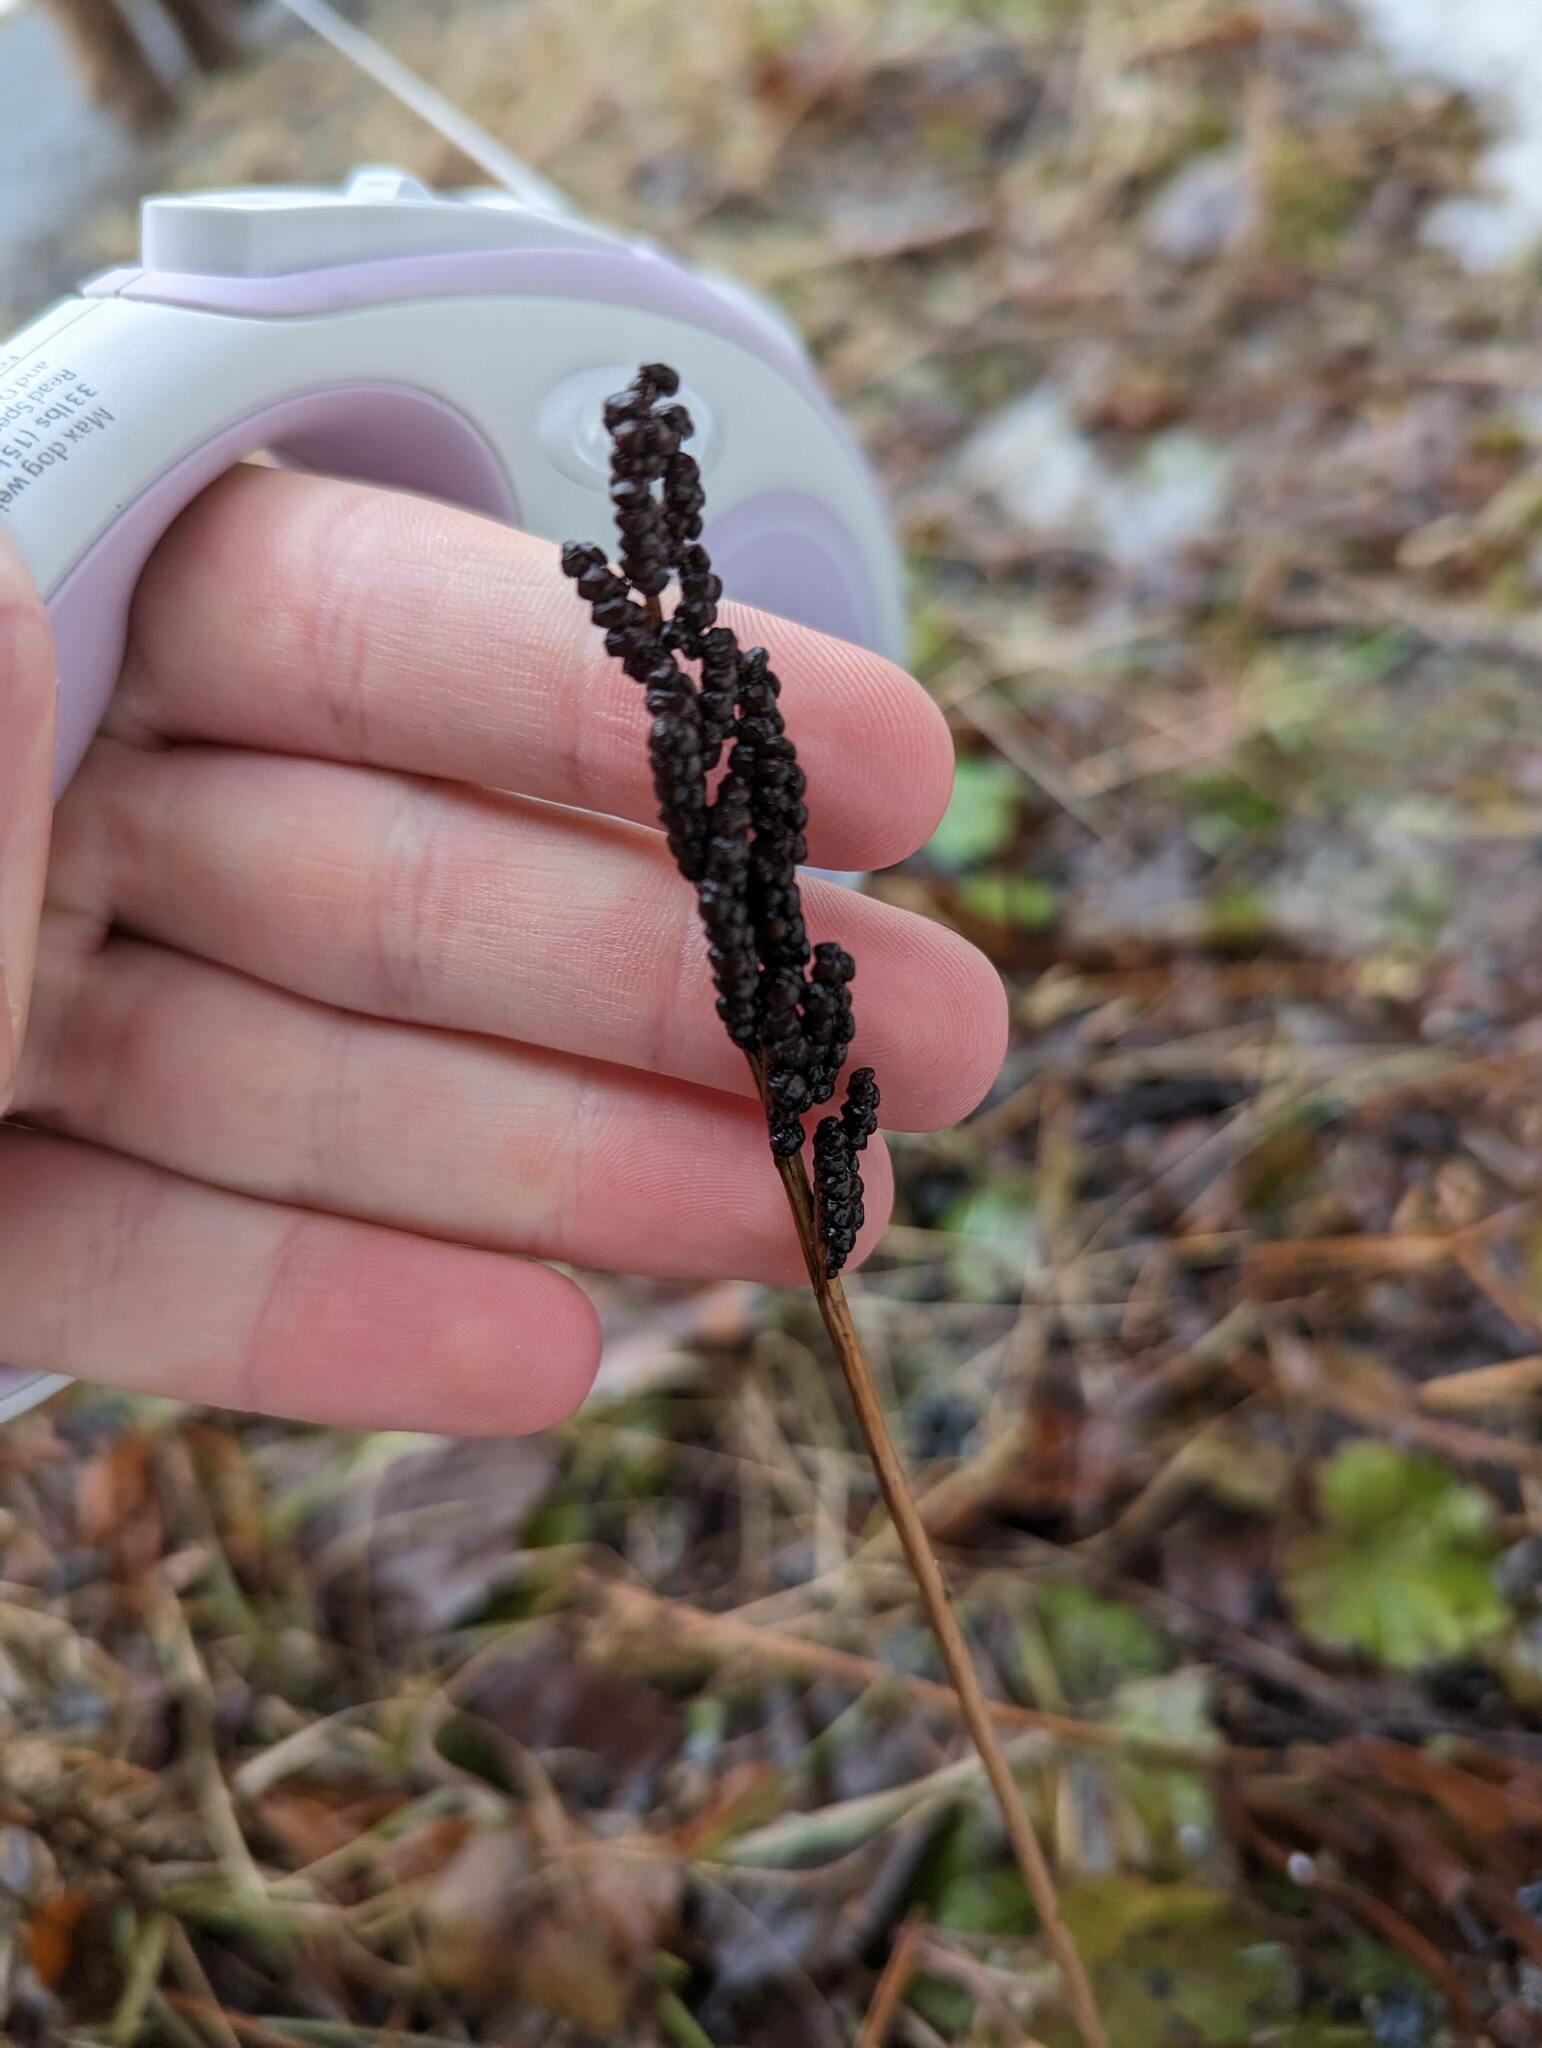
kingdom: Plantae
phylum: Tracheophyta
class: Polypodiopsida
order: Polypodiales
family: Onocleaceae
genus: Onoclea
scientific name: Onoclea sensibilis
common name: Sensitive fern
